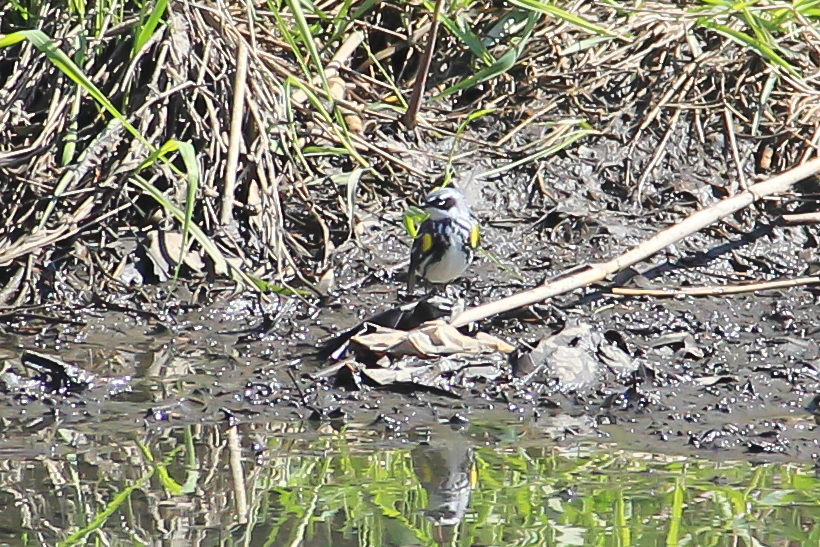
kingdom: Animalia
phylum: Chordata
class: Aves
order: Passeriformes
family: Parulidae
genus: Setophaga
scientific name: Setophaga coronata
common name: Myrtle warbler
